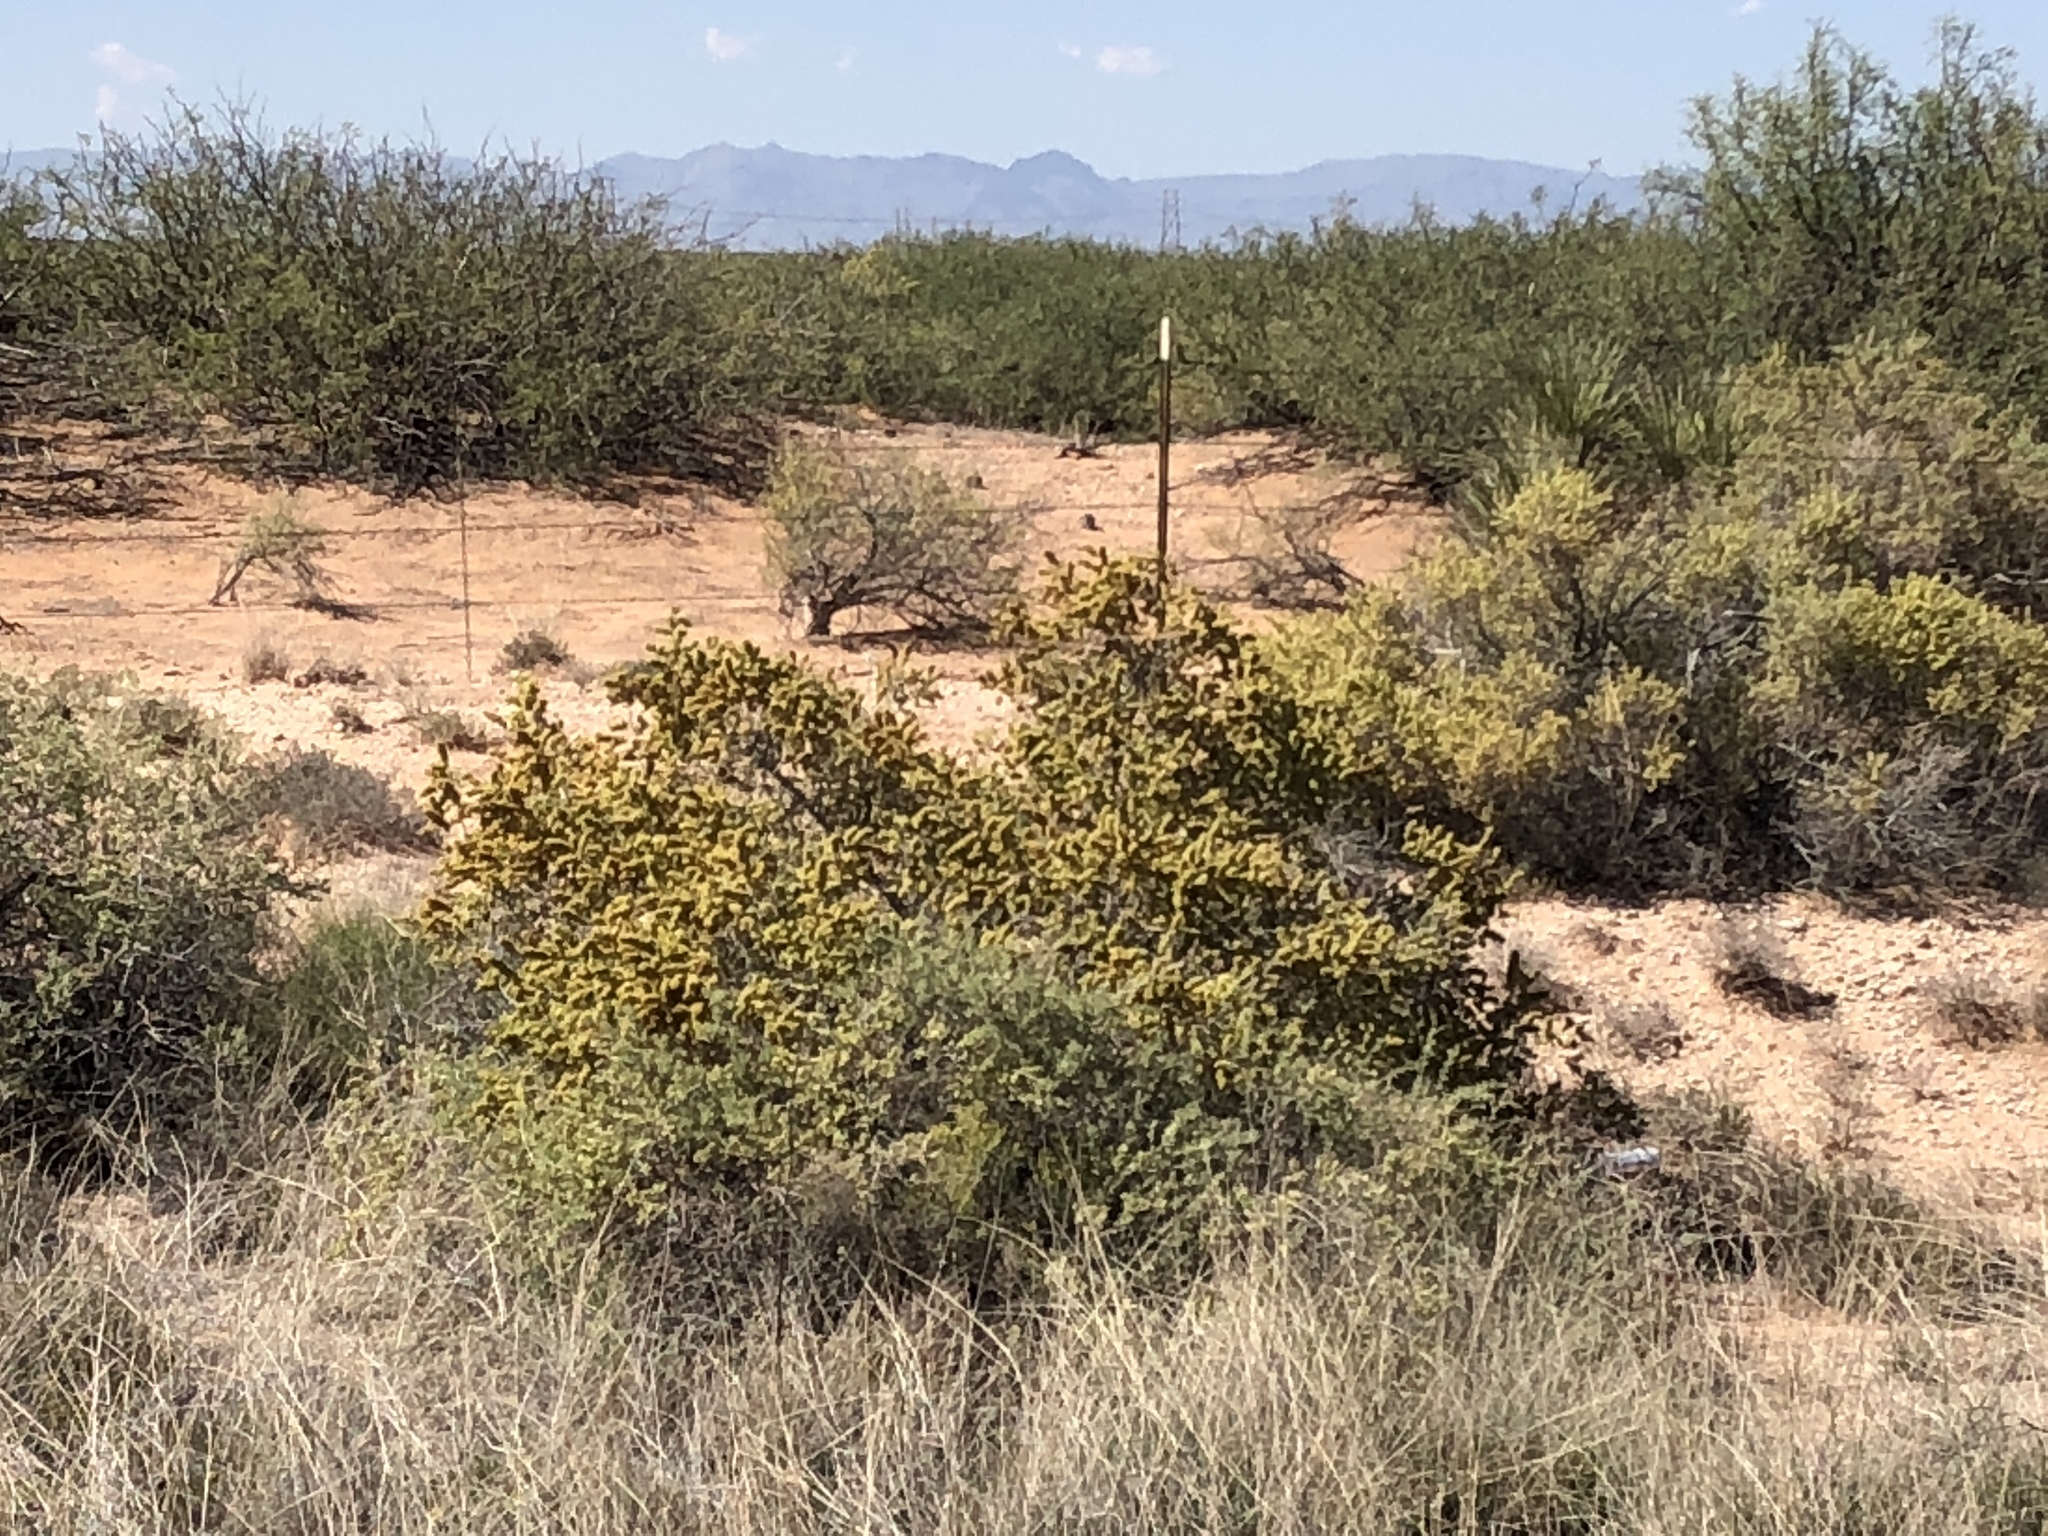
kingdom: Plantae
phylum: Tracheophyta
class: Magnoliopsida
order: Caryophyllales
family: Amaranthaceae
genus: Atriplex
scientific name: Atriplex canescens
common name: Four-wing saltbush
